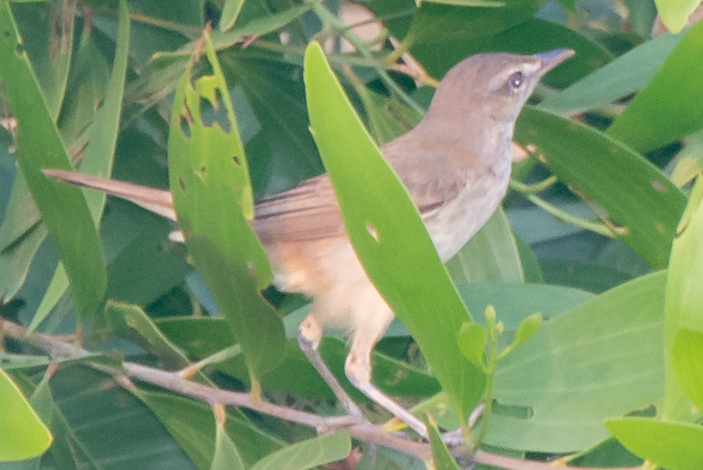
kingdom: Animalia
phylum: Chordata
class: Aves
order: Passeriformes
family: Acrocephalidae
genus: Acrocephalus
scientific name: Acrocephalus orientalis
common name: Oriental reed warbler
